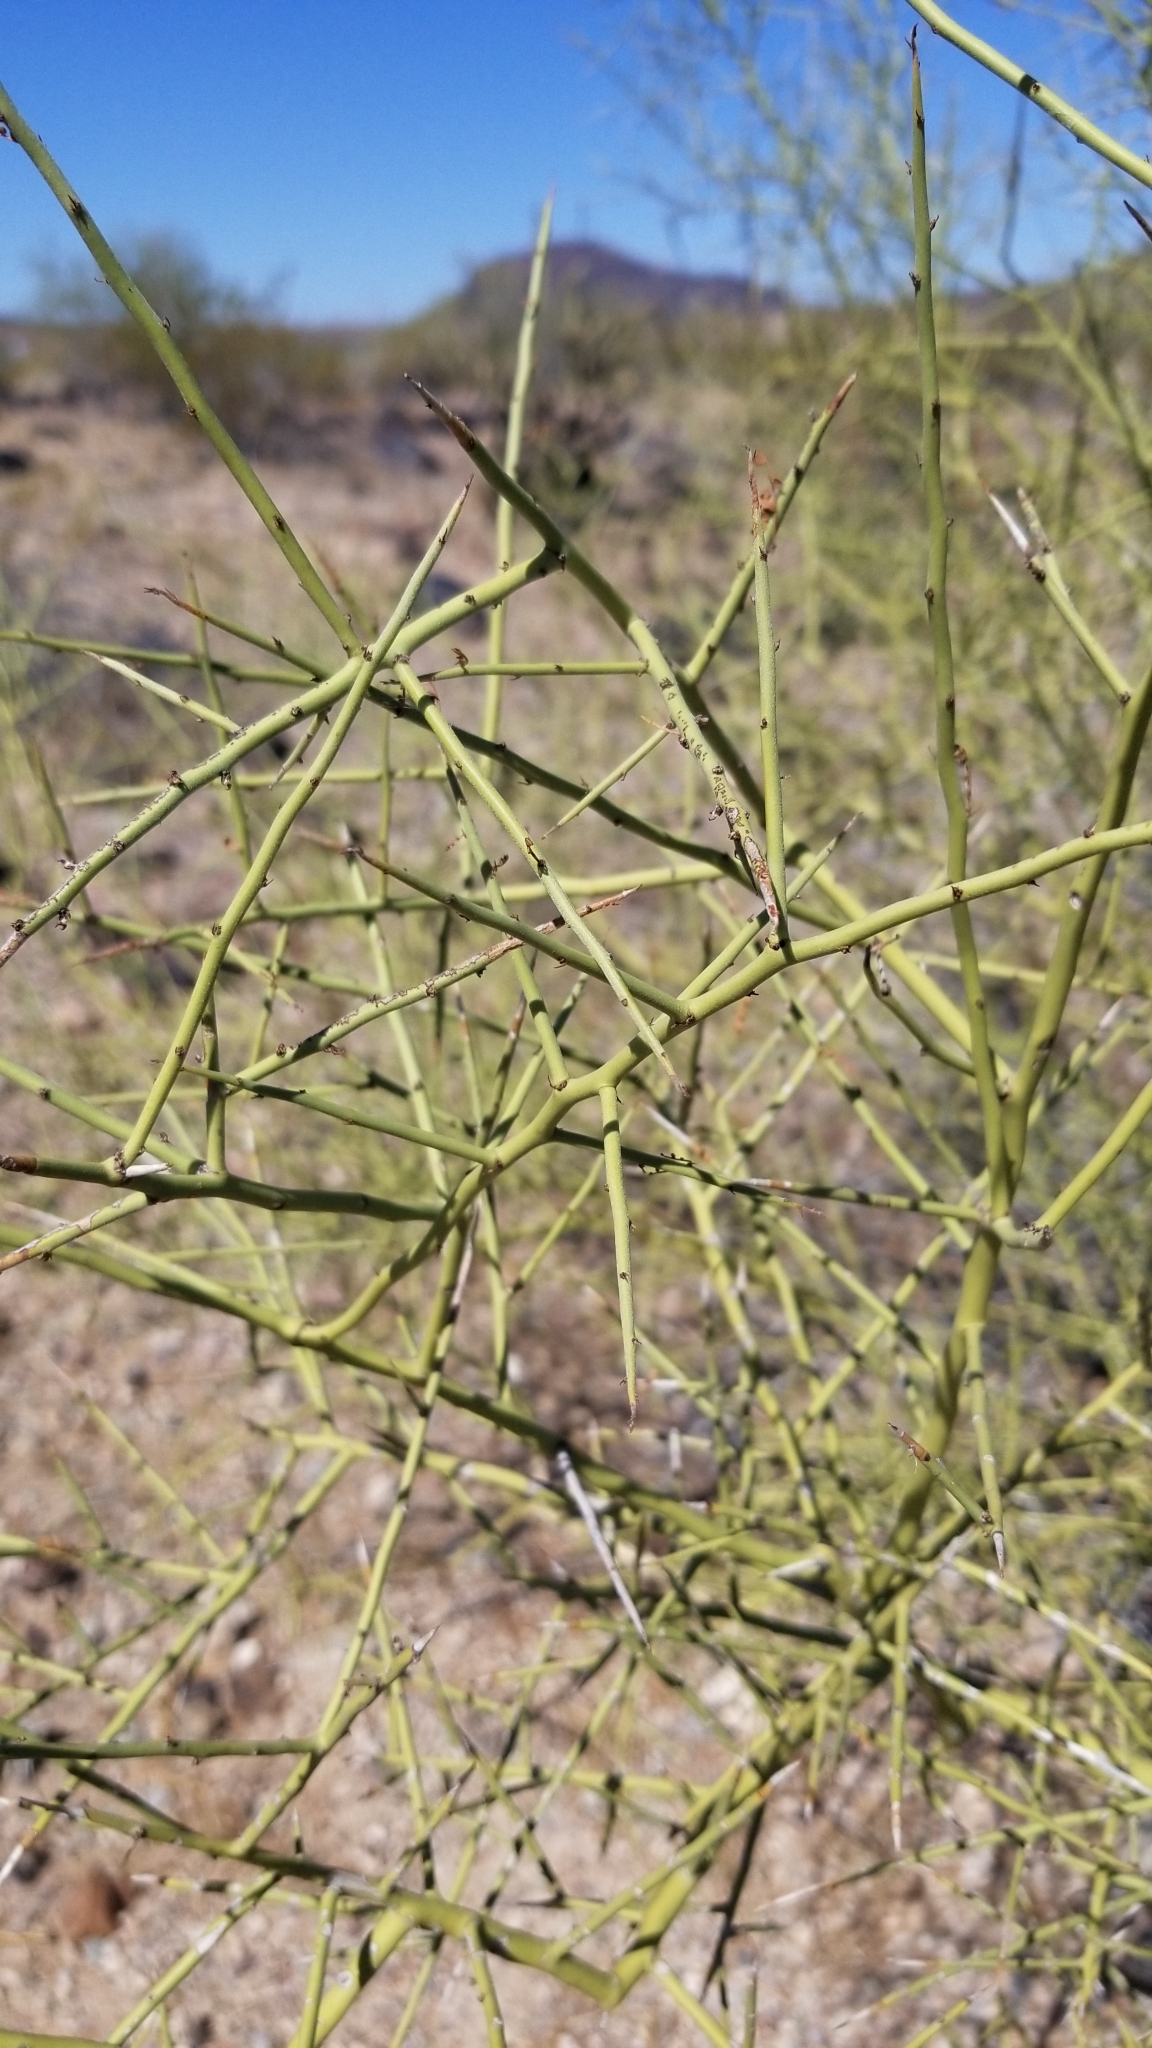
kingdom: Plantae
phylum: Tracheophyta
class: Magnoliopsida
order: Fabales
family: Fabaceae
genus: Parkinsonia
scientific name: Parkinsonia microphylla
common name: Yellow paloverde
